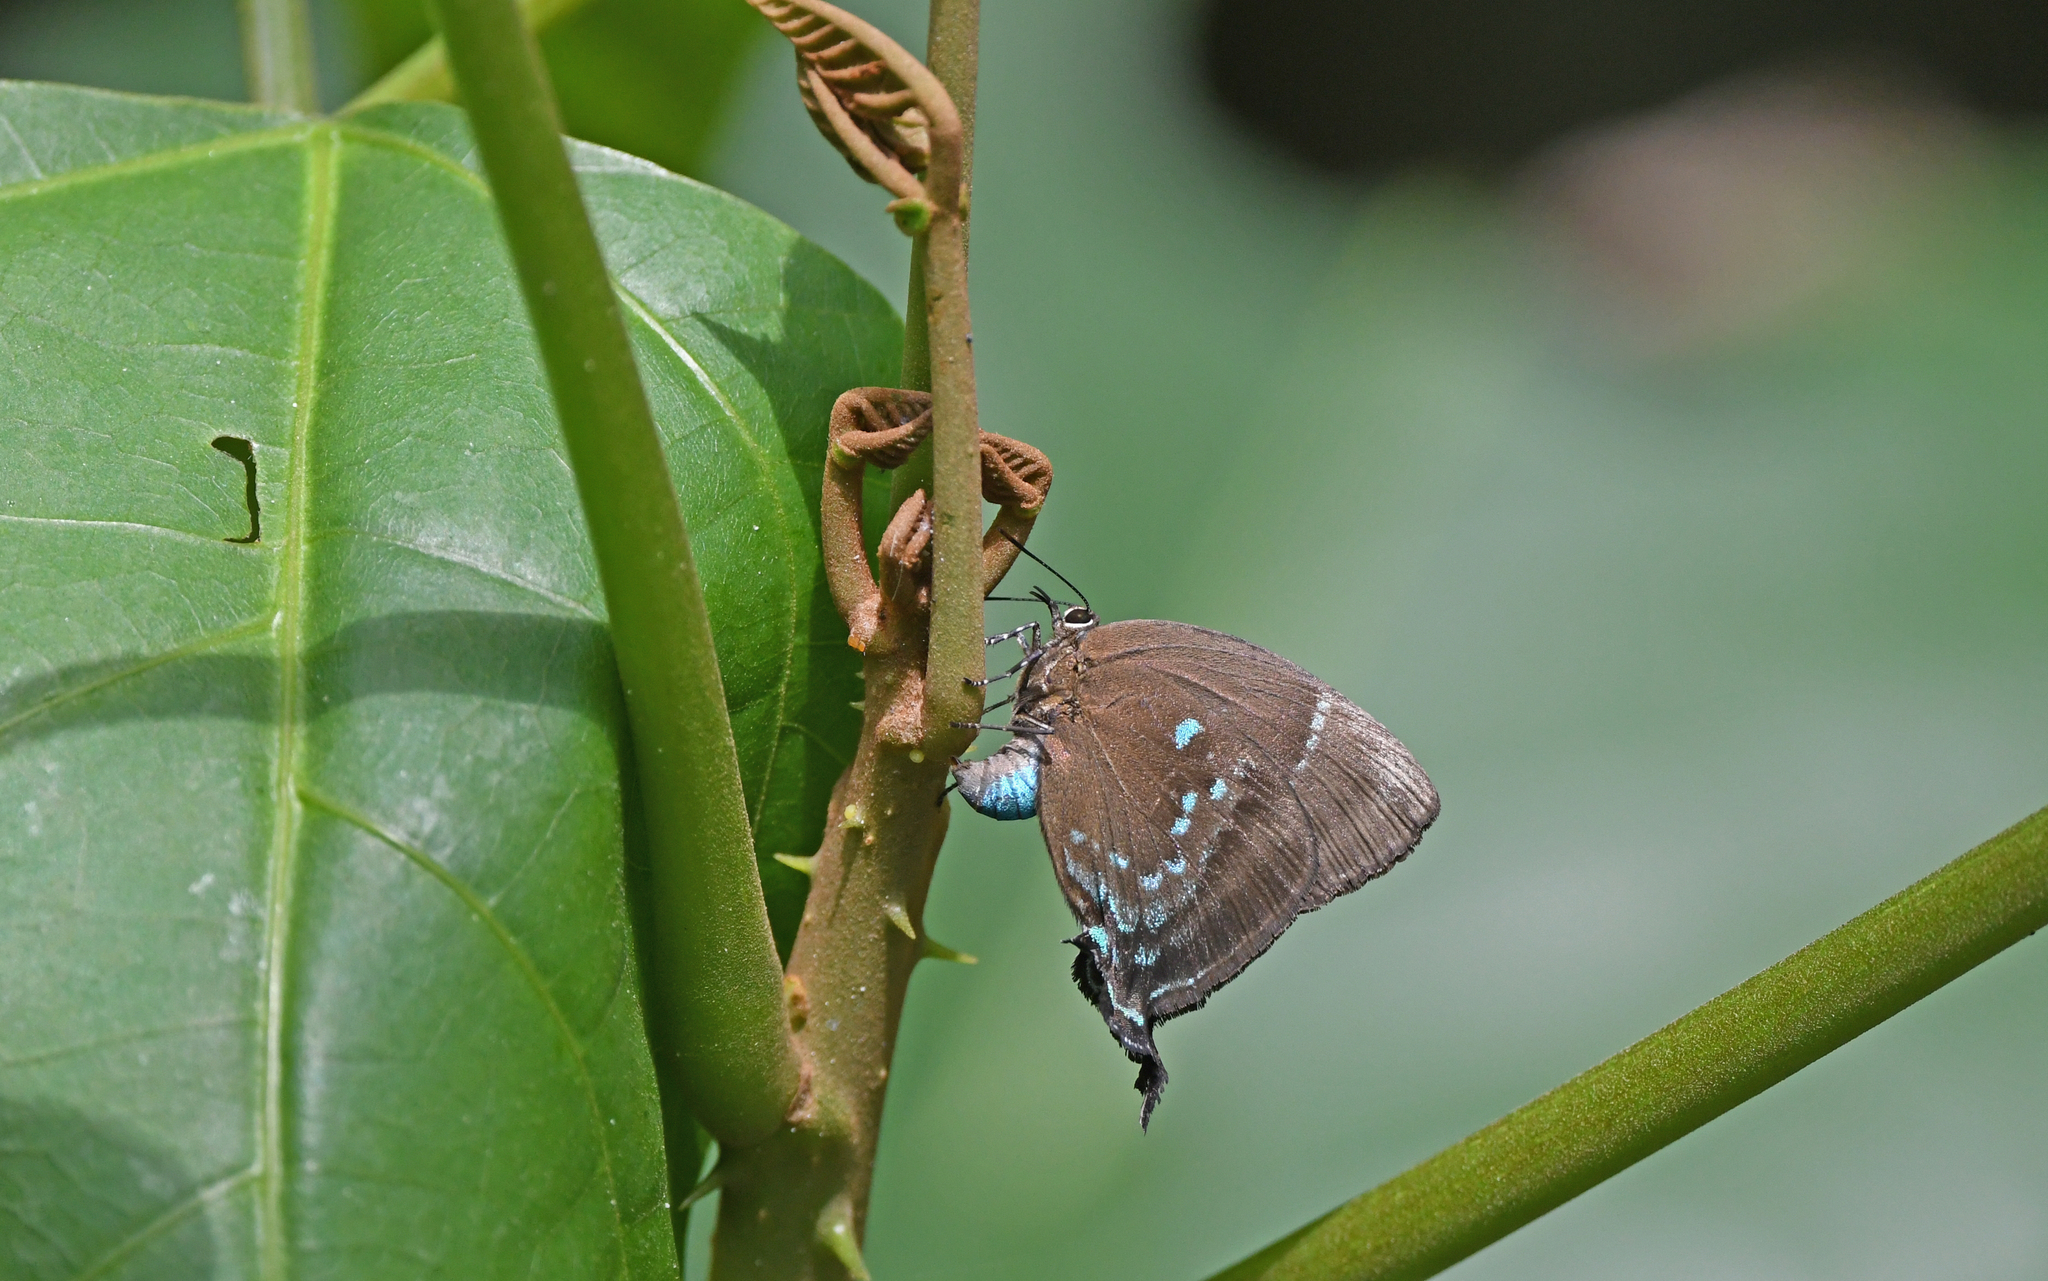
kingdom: Animalia
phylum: Arthropoda
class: Insecta
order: Lepidoptera
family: Lycaenidae
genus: Denivia
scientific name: Denivia
